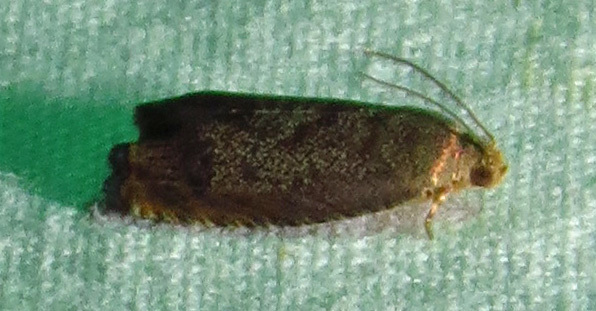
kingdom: Animalia
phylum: Arthropoda
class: Insecta
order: Lepidoptera
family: Tortricidae
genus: Cydia
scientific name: Cydia caryana
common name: Hickory shuckworm moth
